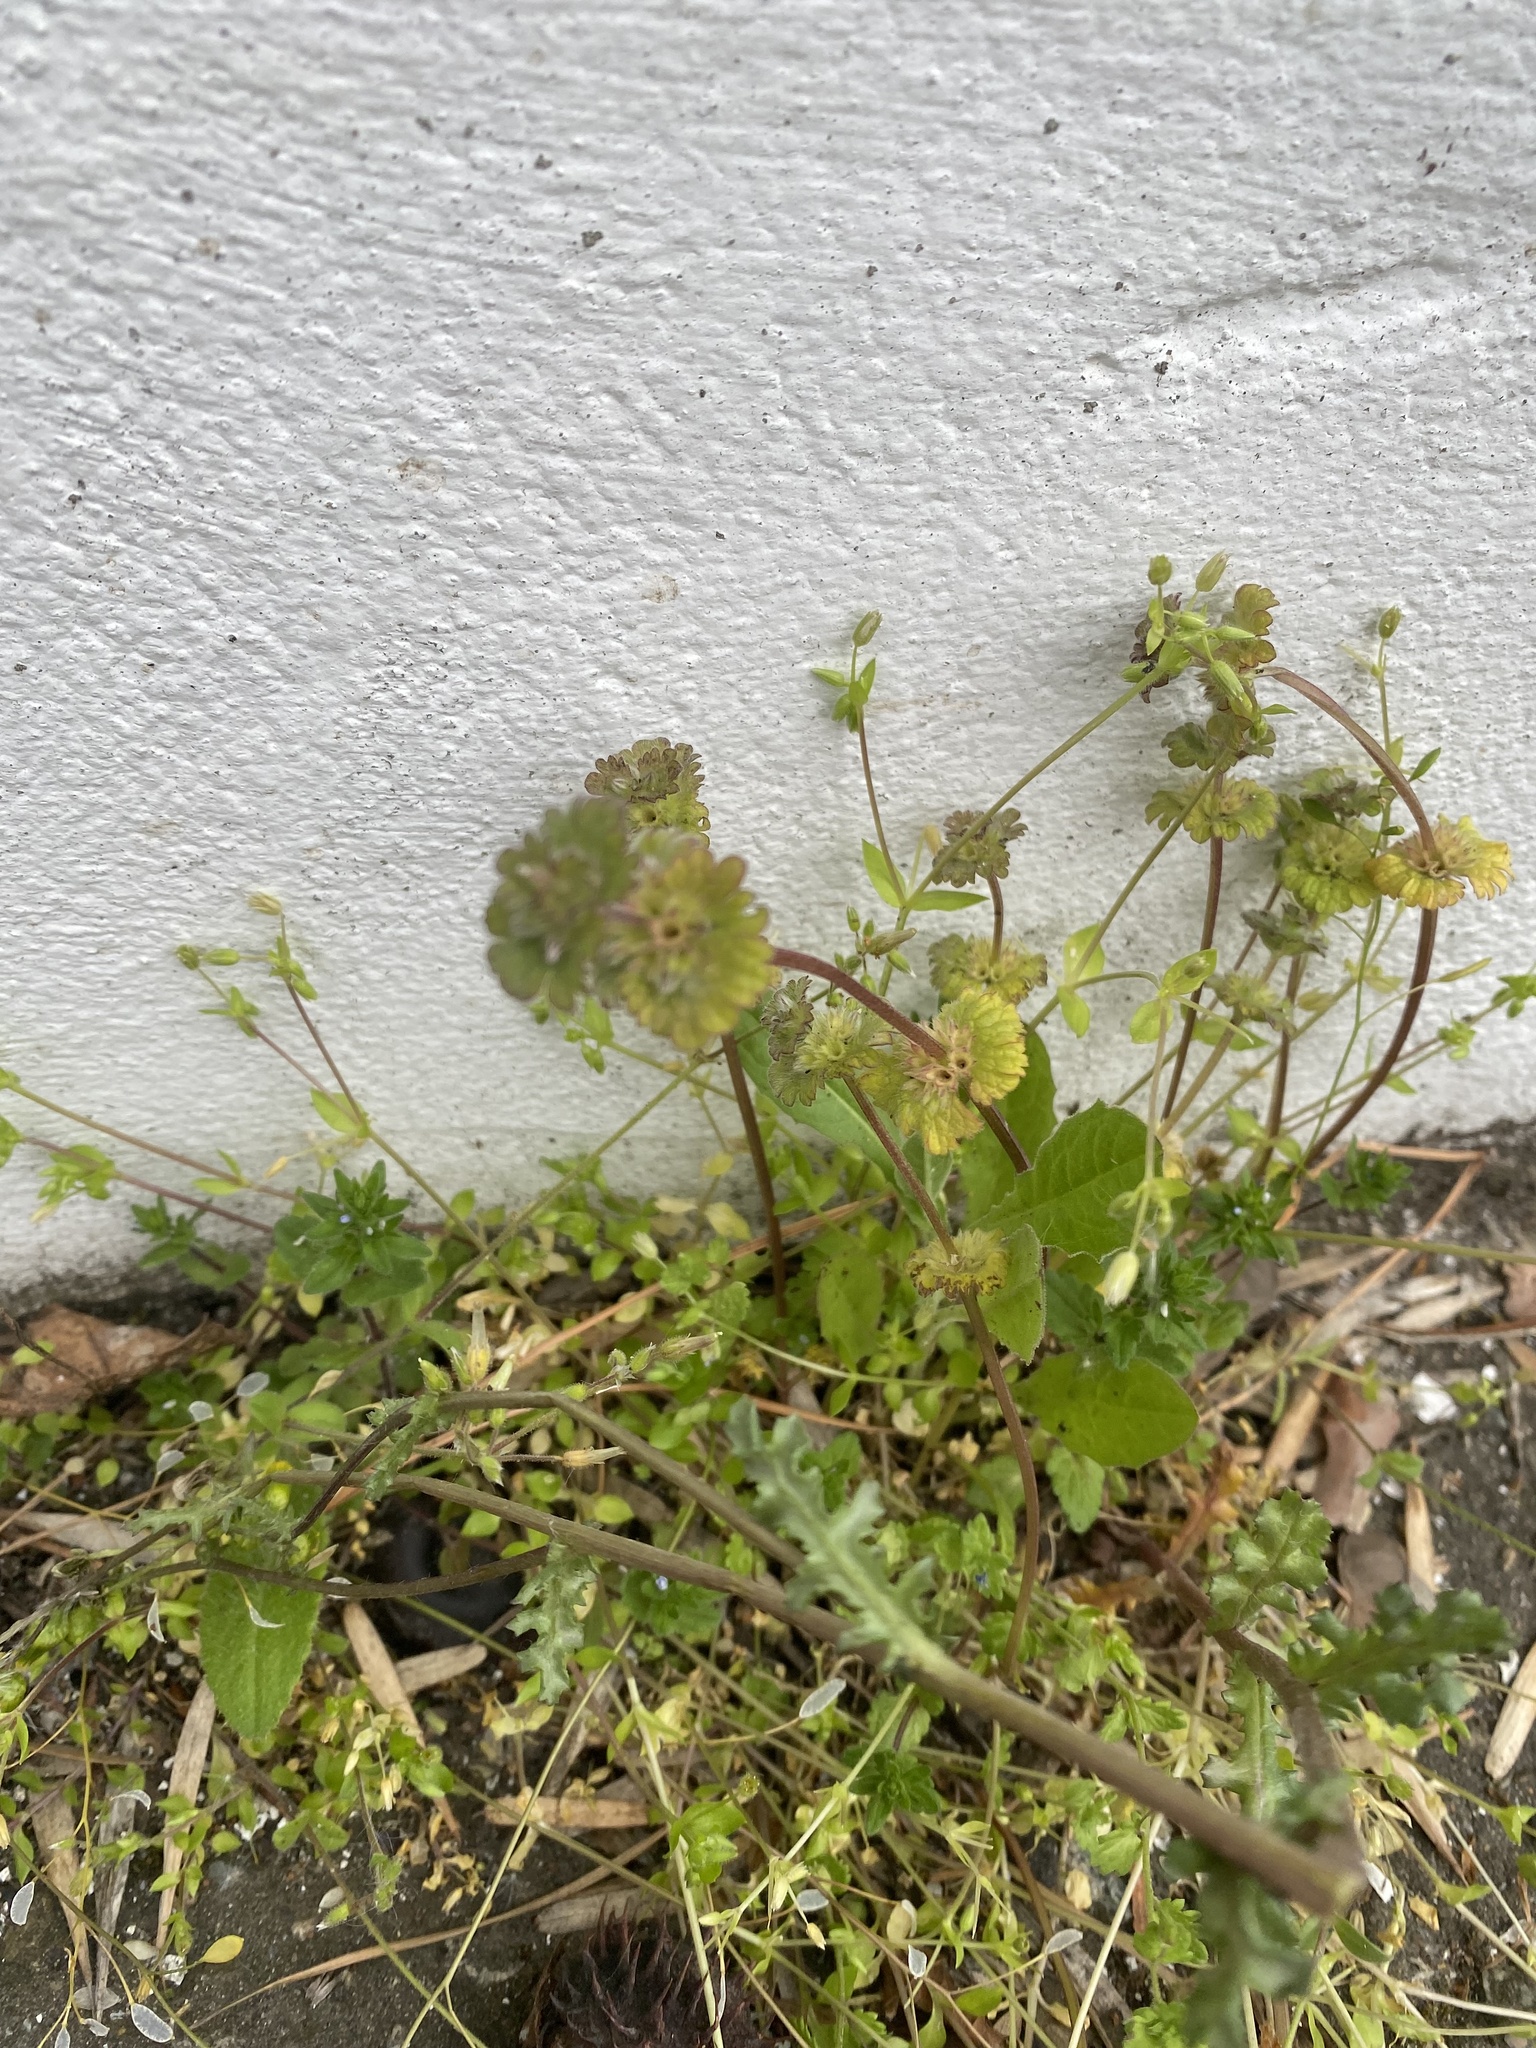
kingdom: Plantae
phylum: Tracheophyta
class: Magnoliopsida
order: Lamiales
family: Lamiaceae
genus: Lamium
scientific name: Lamium amplexicaule
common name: Henbit dead-nettle
